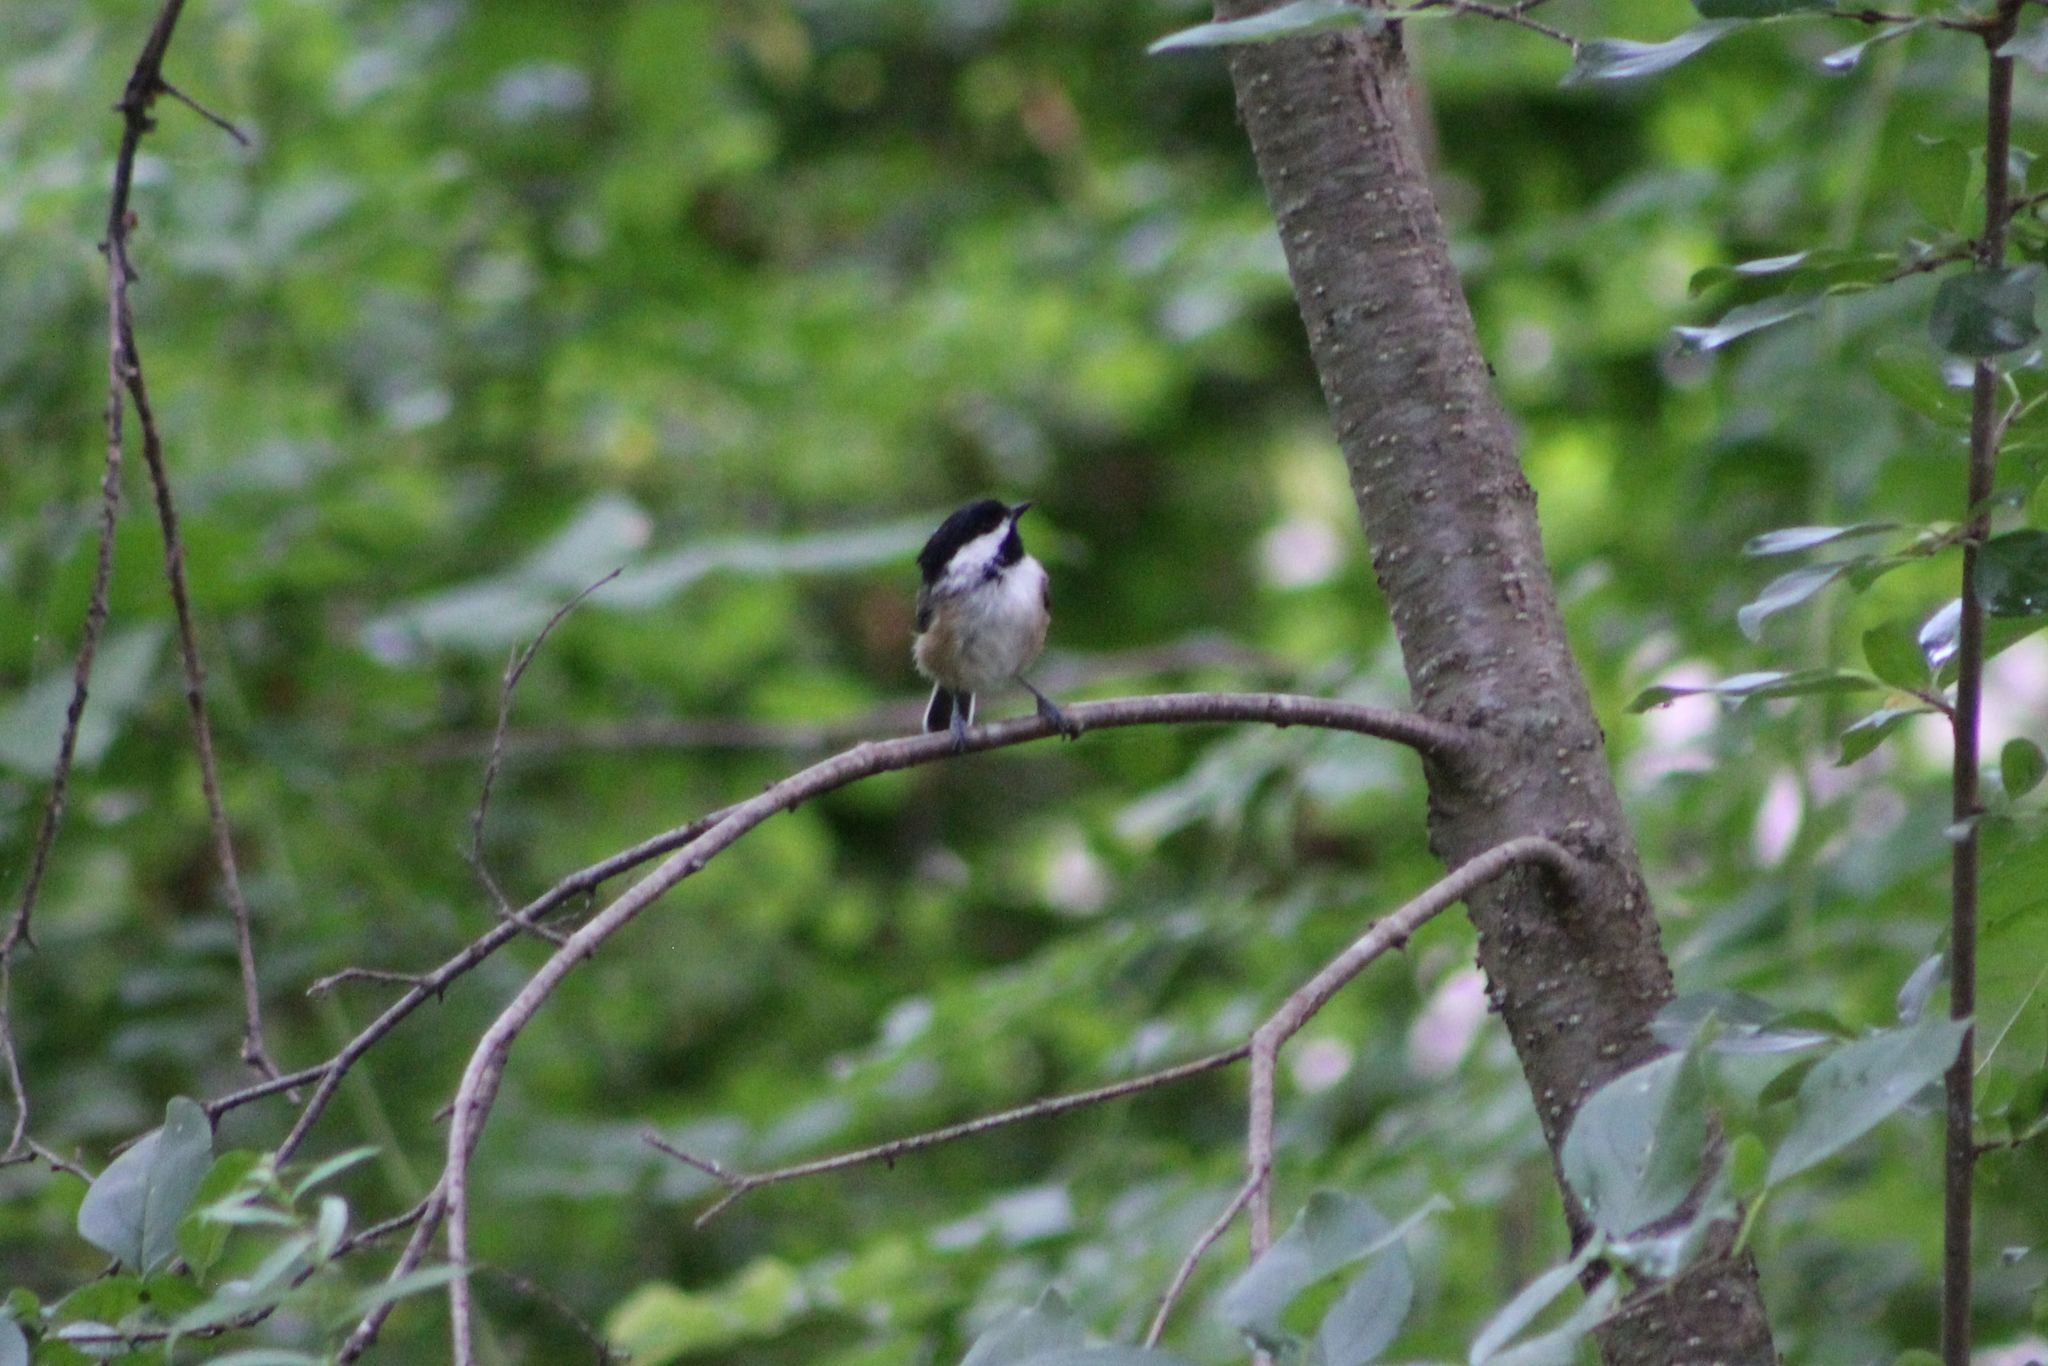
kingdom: Animalia
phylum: Chordata
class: Aves
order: Passeriformes
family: Paridae
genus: Poecile
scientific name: Poecile atricapillus
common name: Black-capped chickadee
